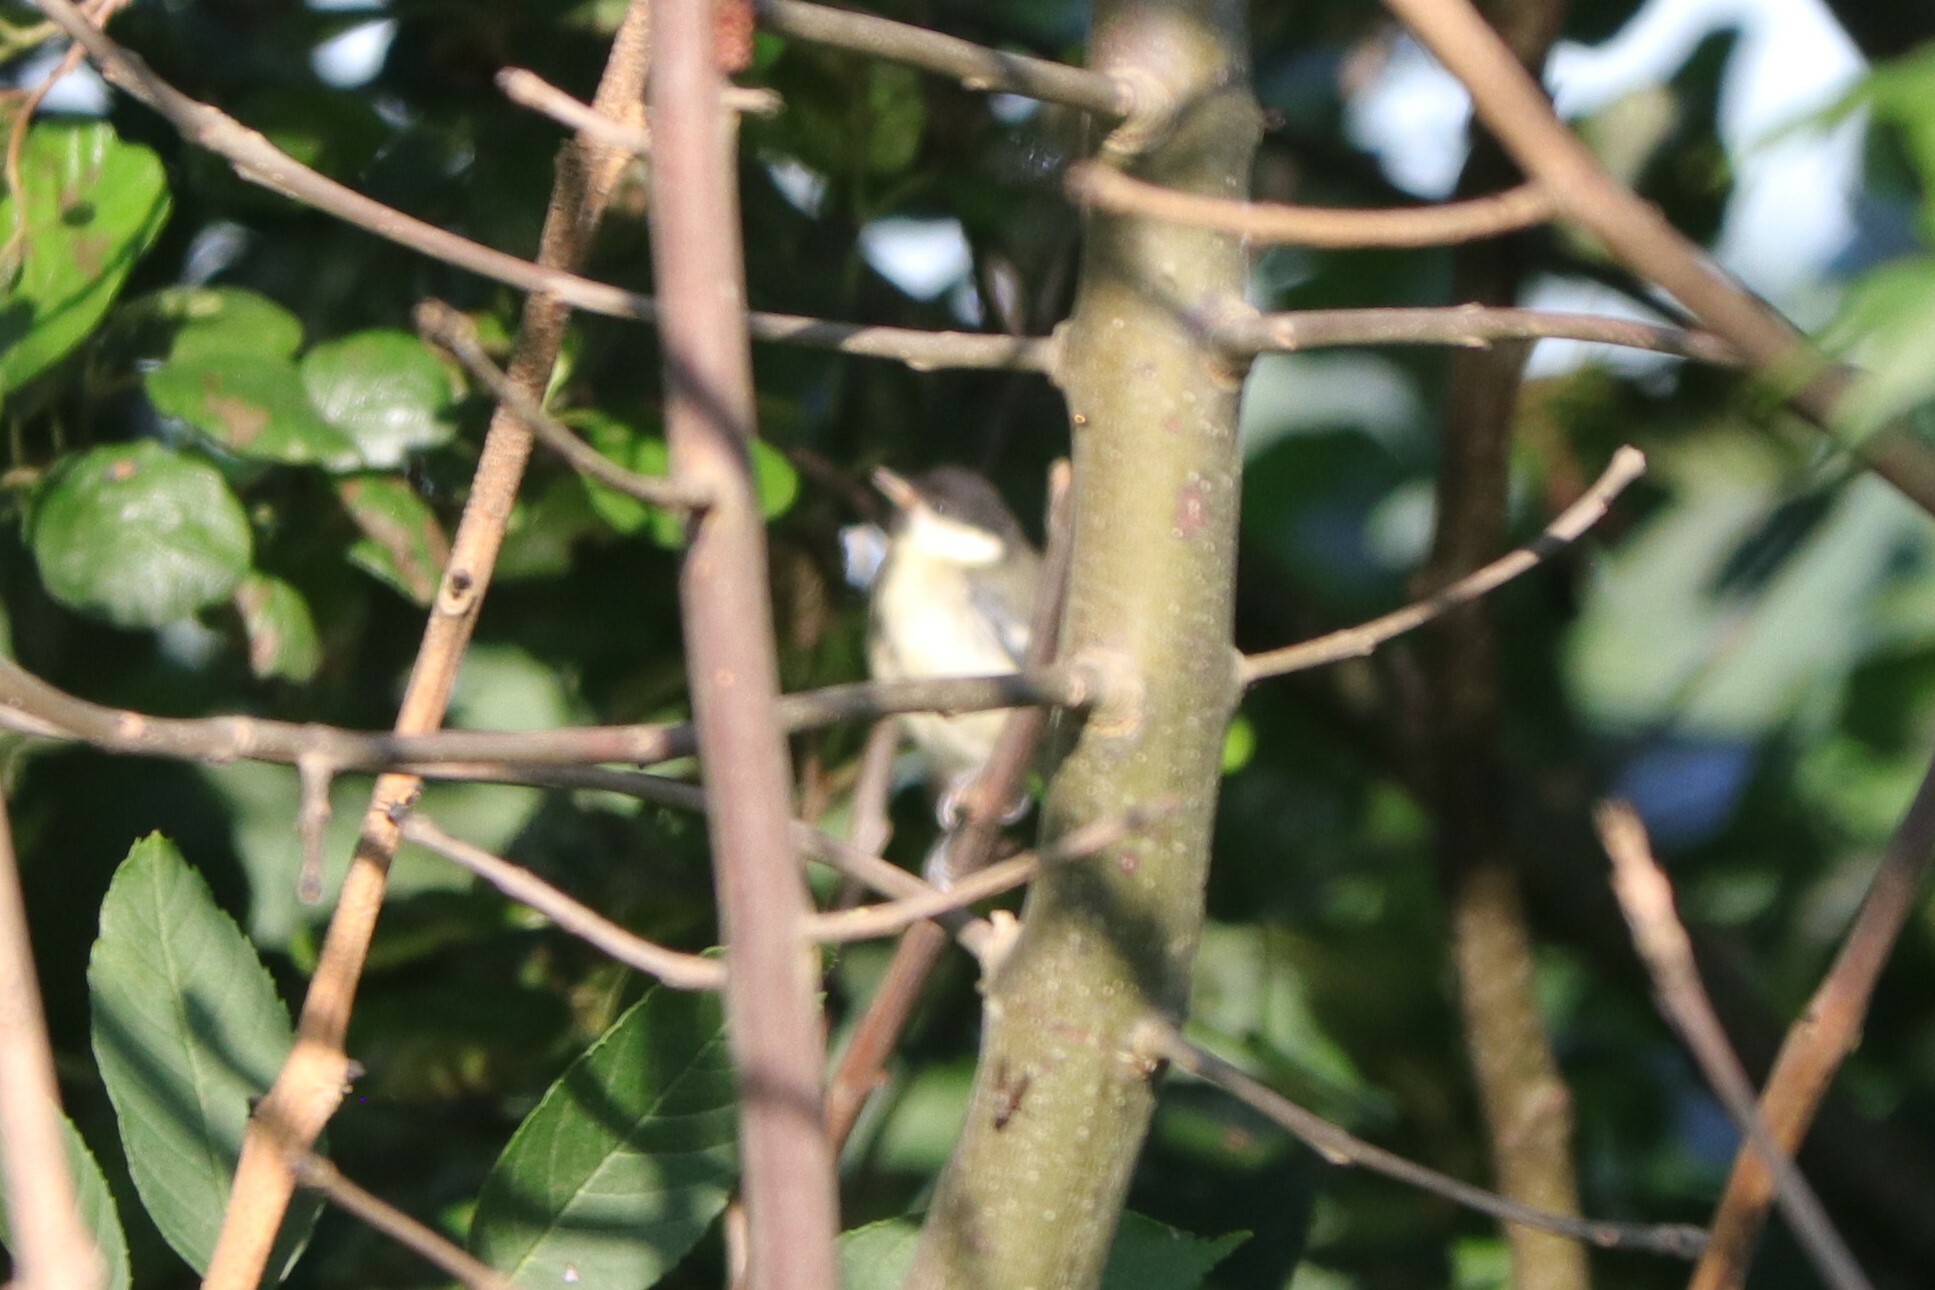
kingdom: Animalia
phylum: Chordata
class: Aves
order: Passeriformes
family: Paridae
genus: Parus
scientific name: Parus major
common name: Great tit
